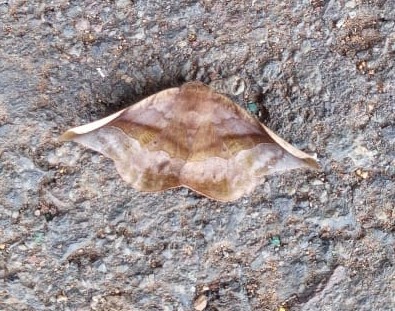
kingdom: Animalia
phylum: Arthropoda
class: Insecta
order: Lepidoptera
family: Geometridae
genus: Hygrochroma
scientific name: Hygrochroma nondina
